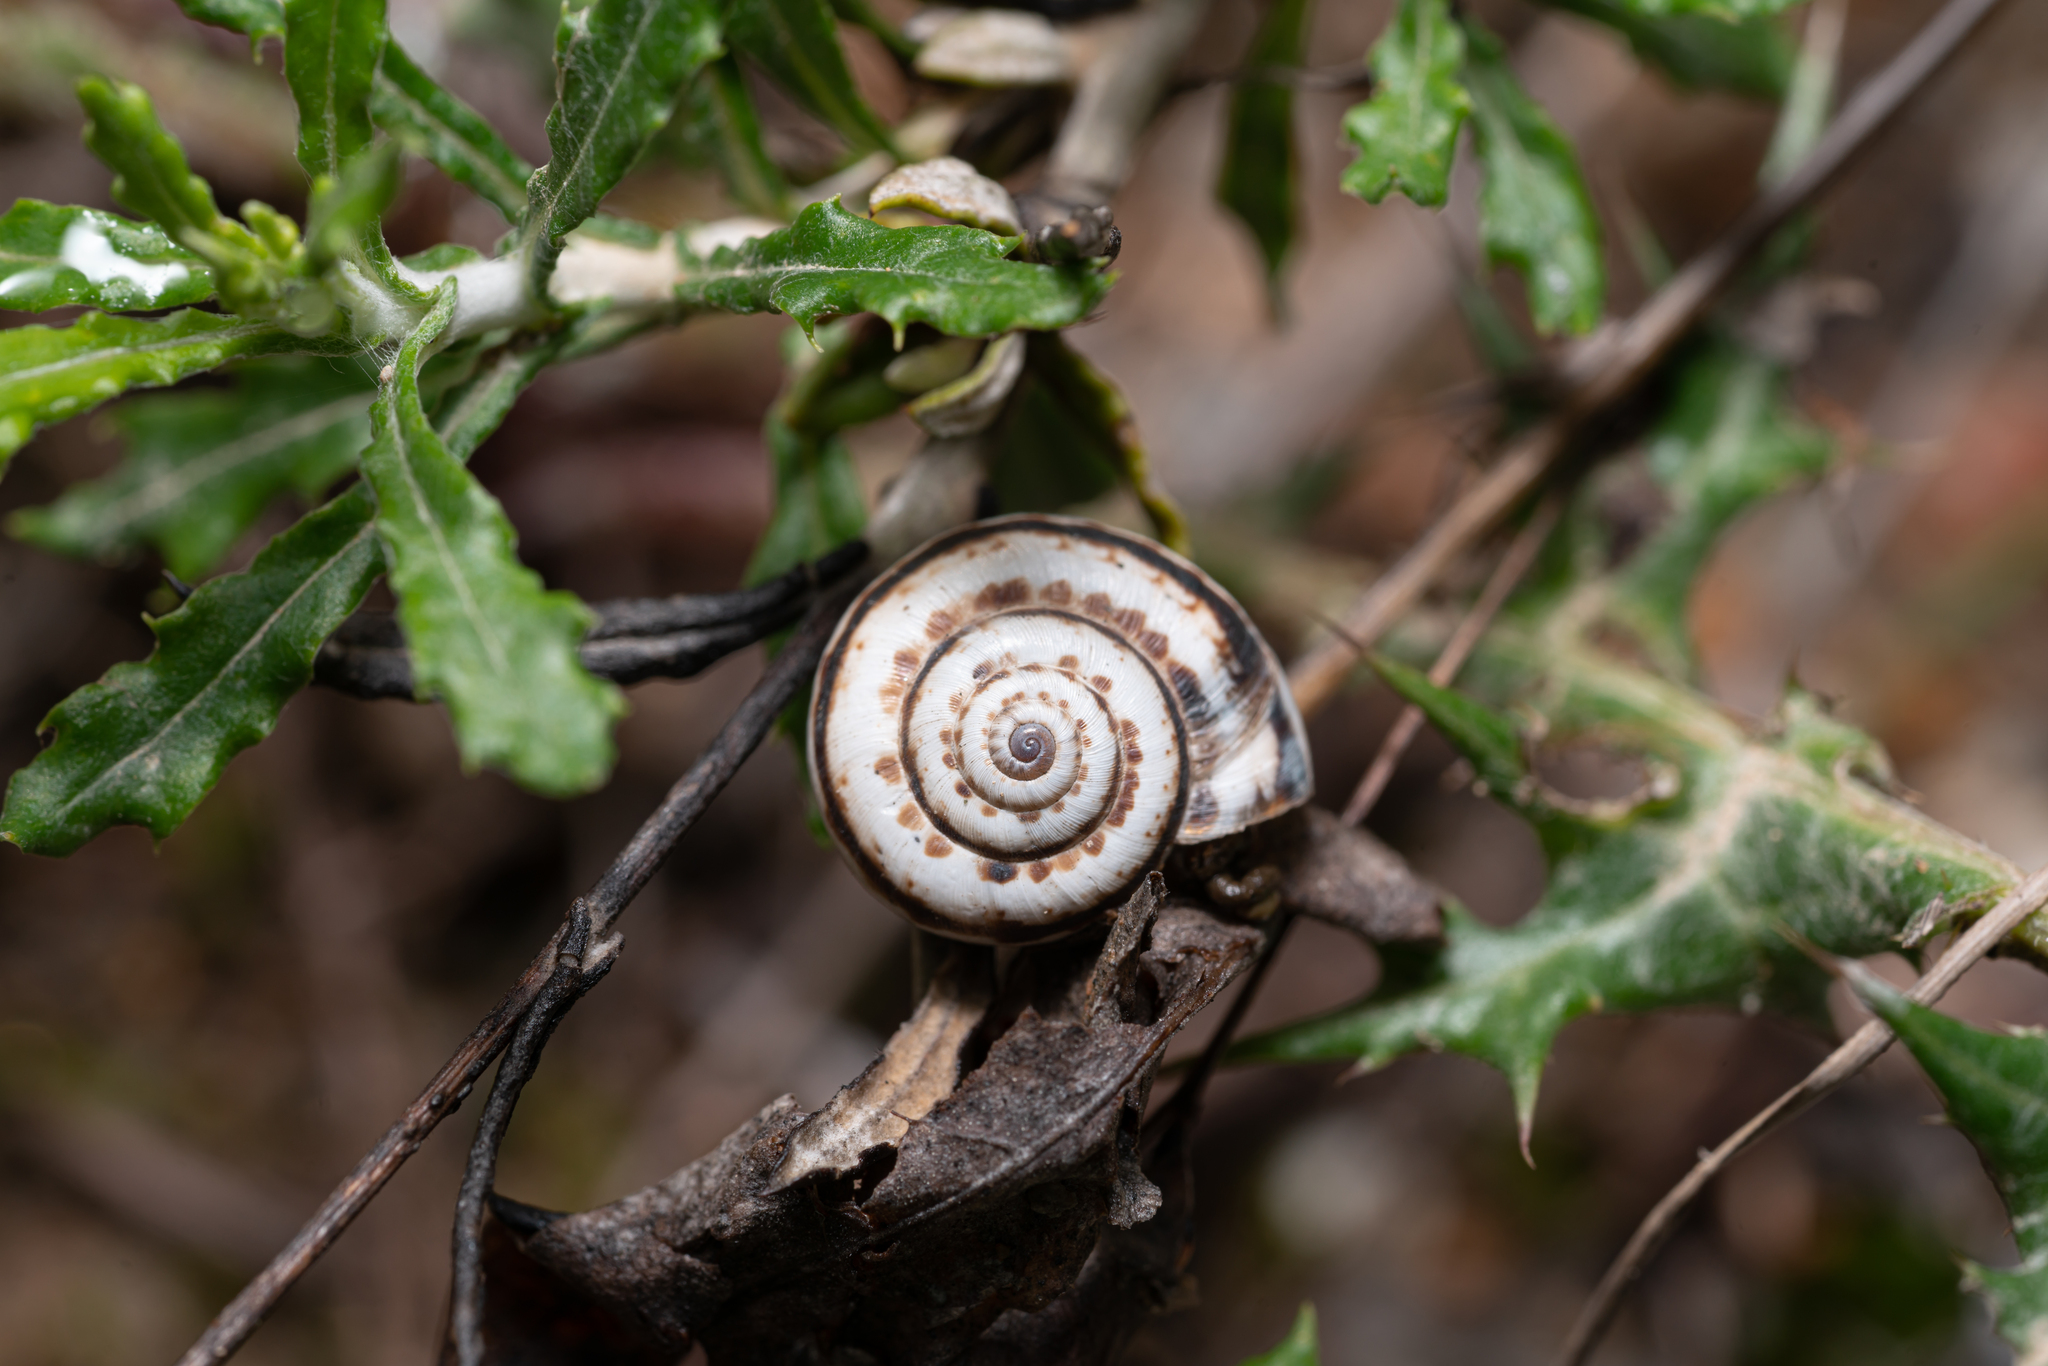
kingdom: Animalia
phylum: Mollusca
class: Gastropoda
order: Stylommatophora
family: Geomitridae
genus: Xeropicta
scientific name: Xeropicta krynickii
